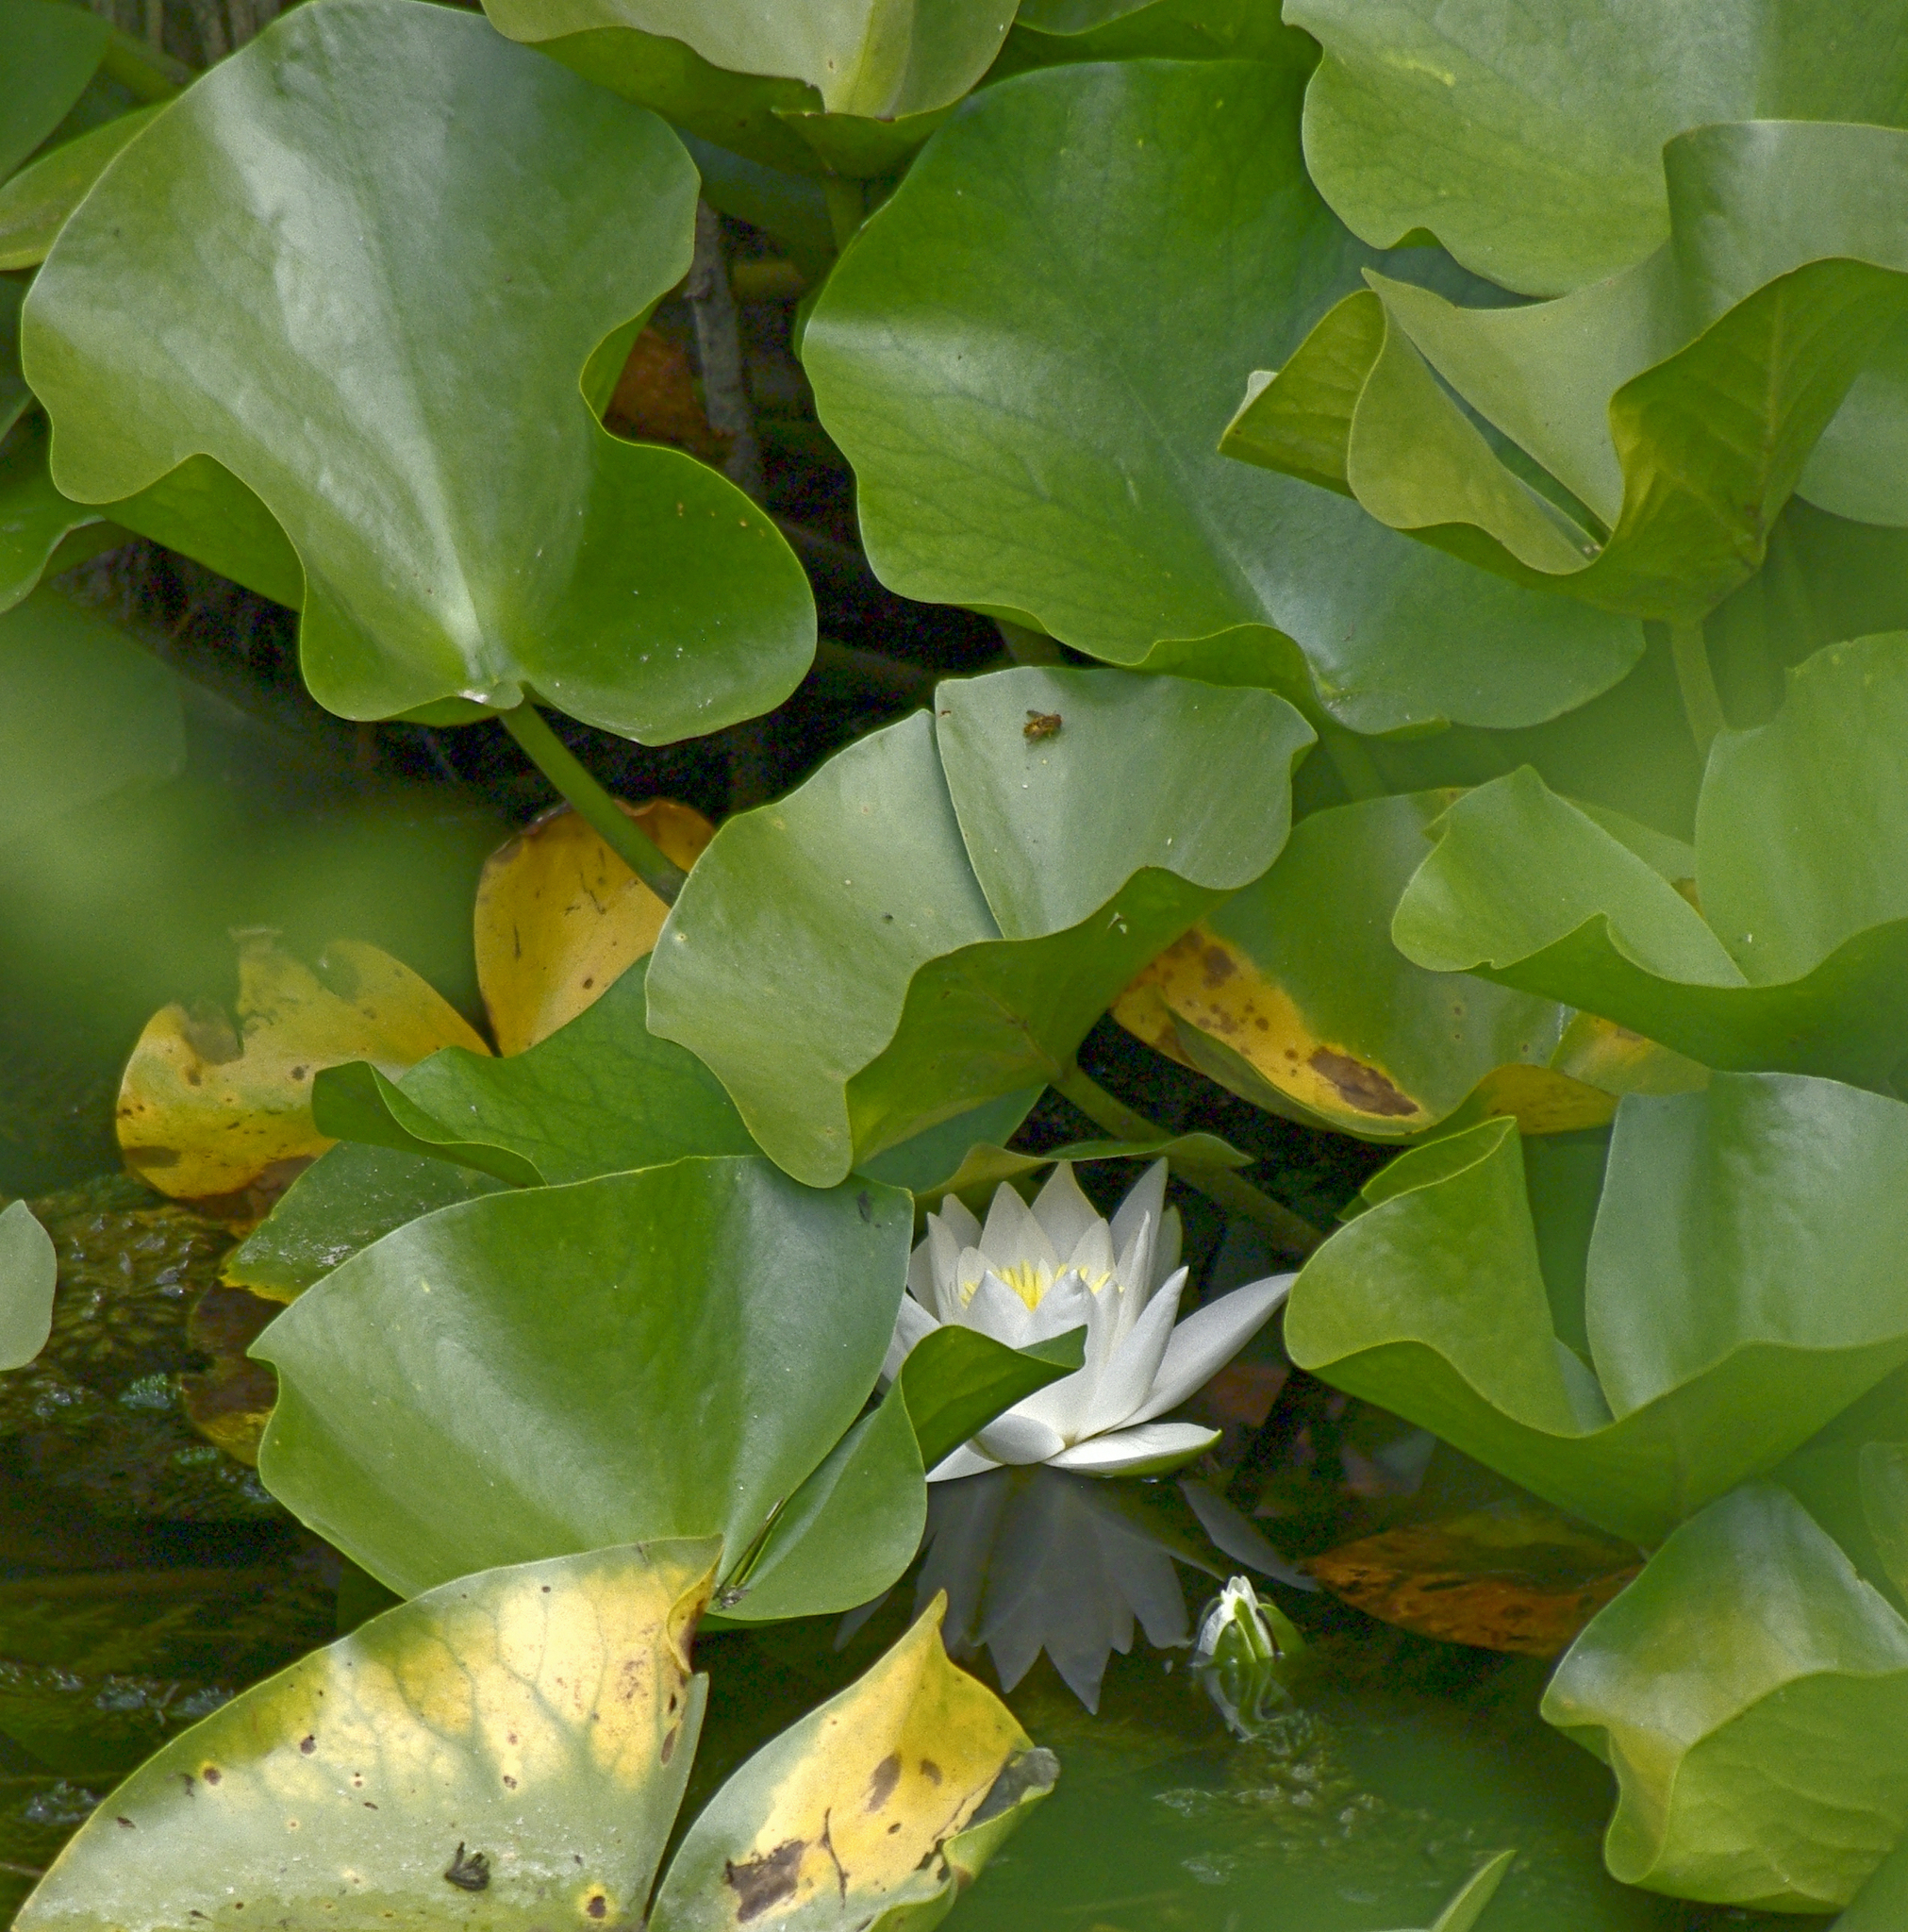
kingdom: Plantae
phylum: Tracheophyta
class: Magnoliopsida
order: Nymphaeales
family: Nymphaeaceae
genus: Nymphaea
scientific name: Nymphaea alba
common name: White water-lily
